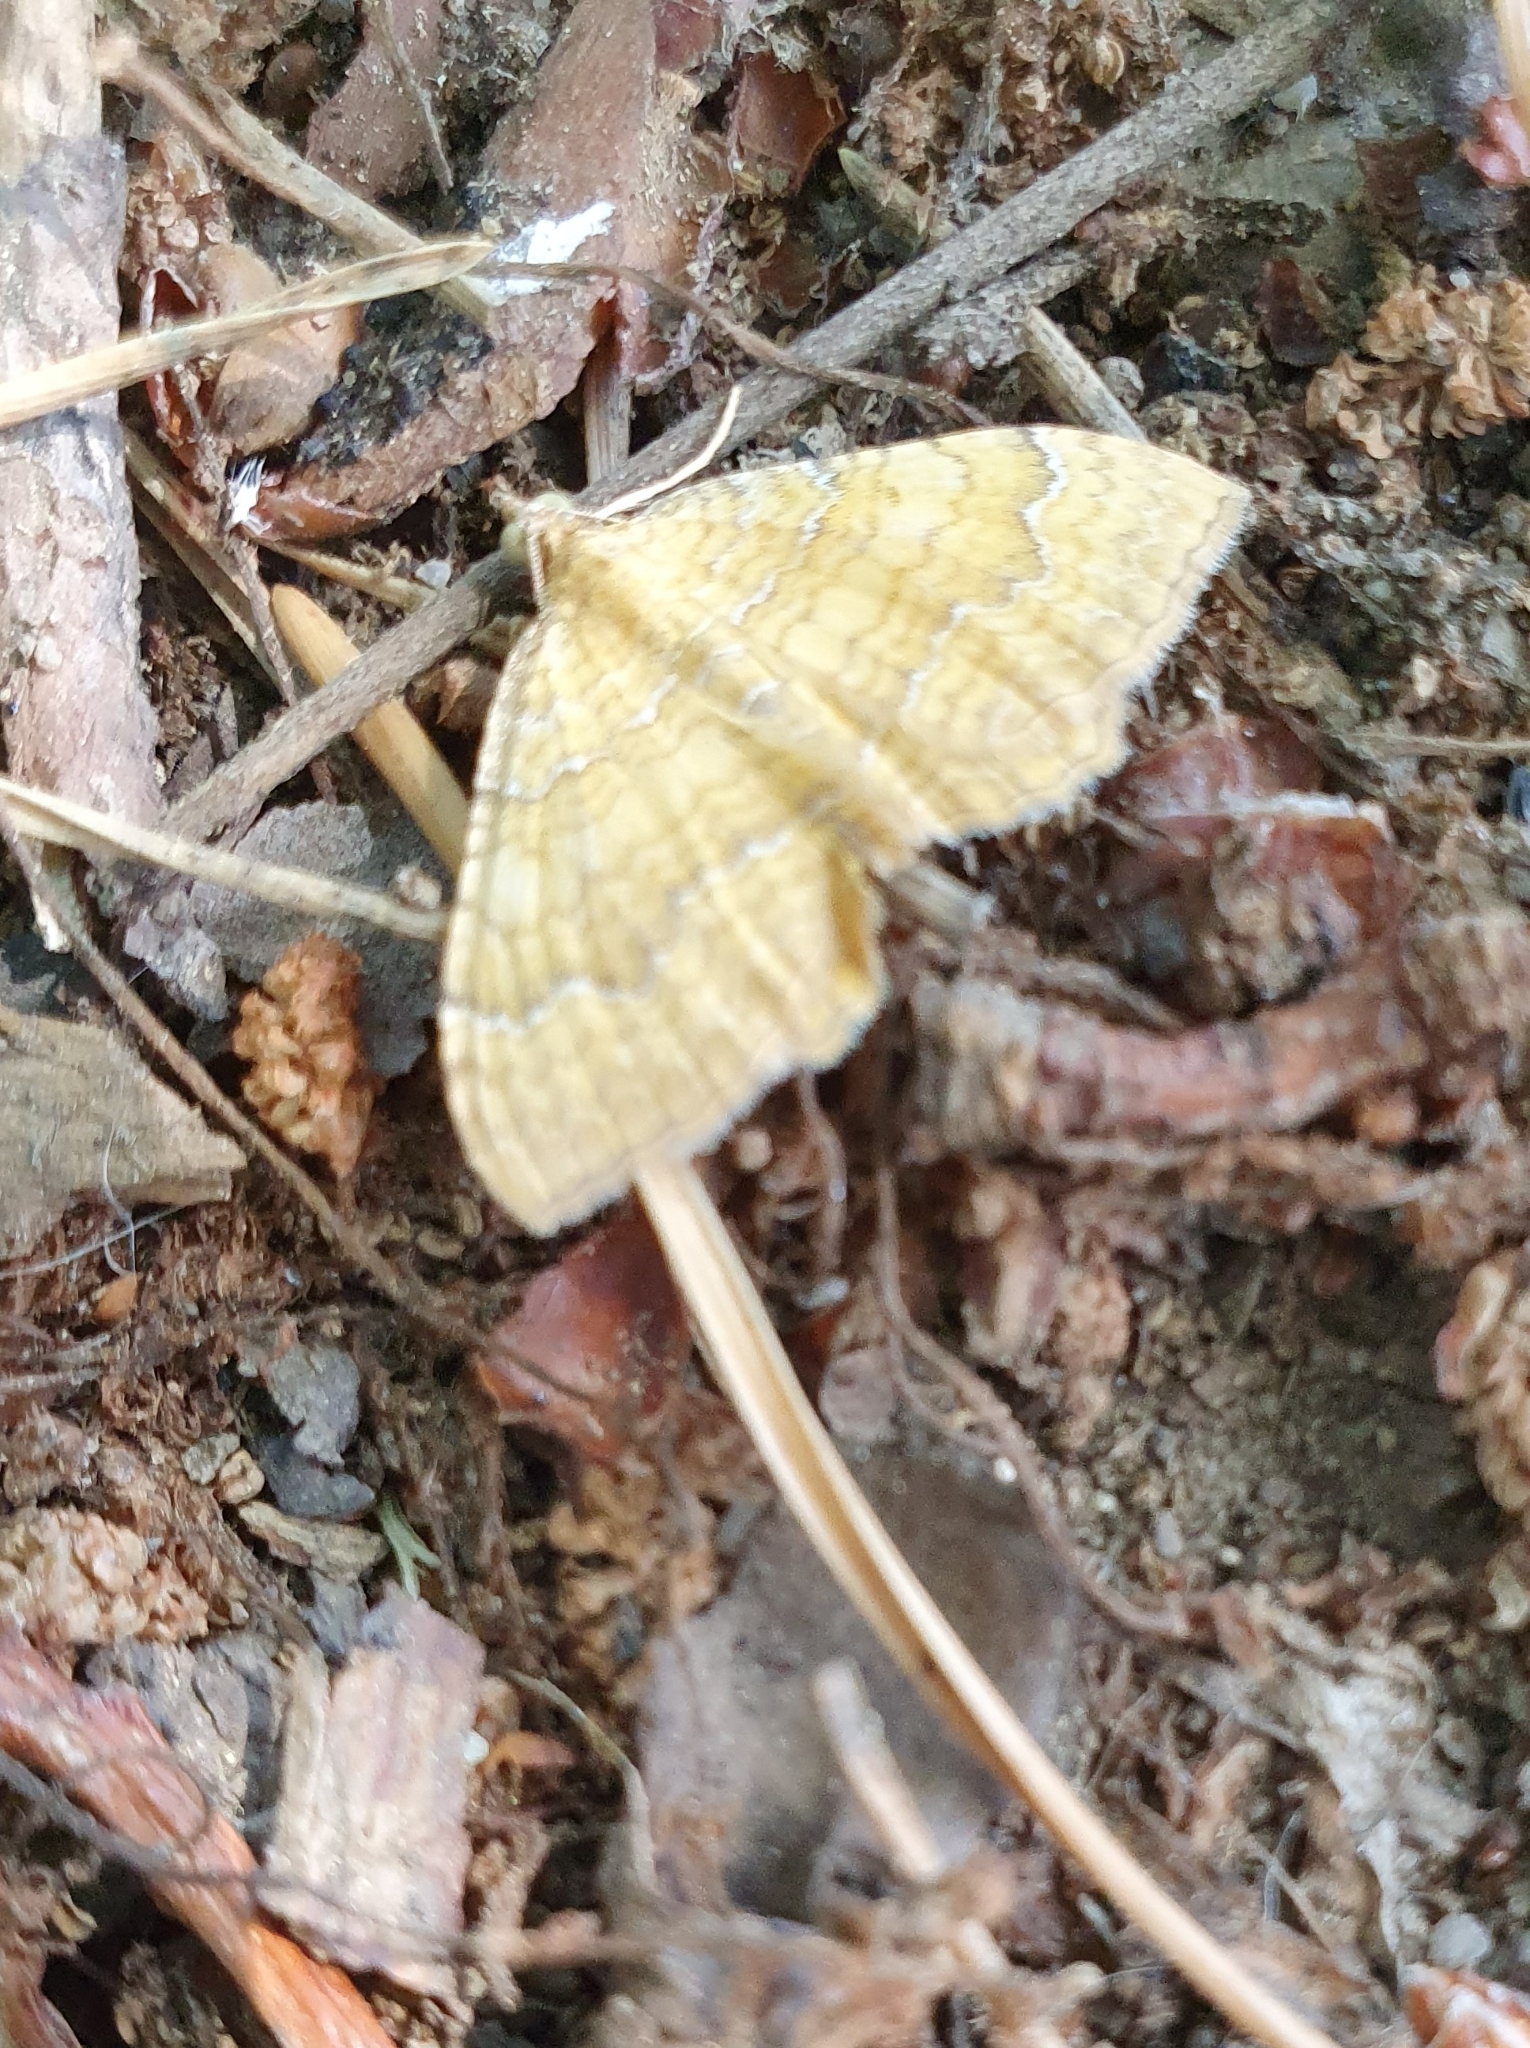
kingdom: Animalia
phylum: Arthropoda
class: Insecta
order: Lepidoptera
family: Geometridae
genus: Camptogramma
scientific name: Camptogramma bilineata
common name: Yellow shell
